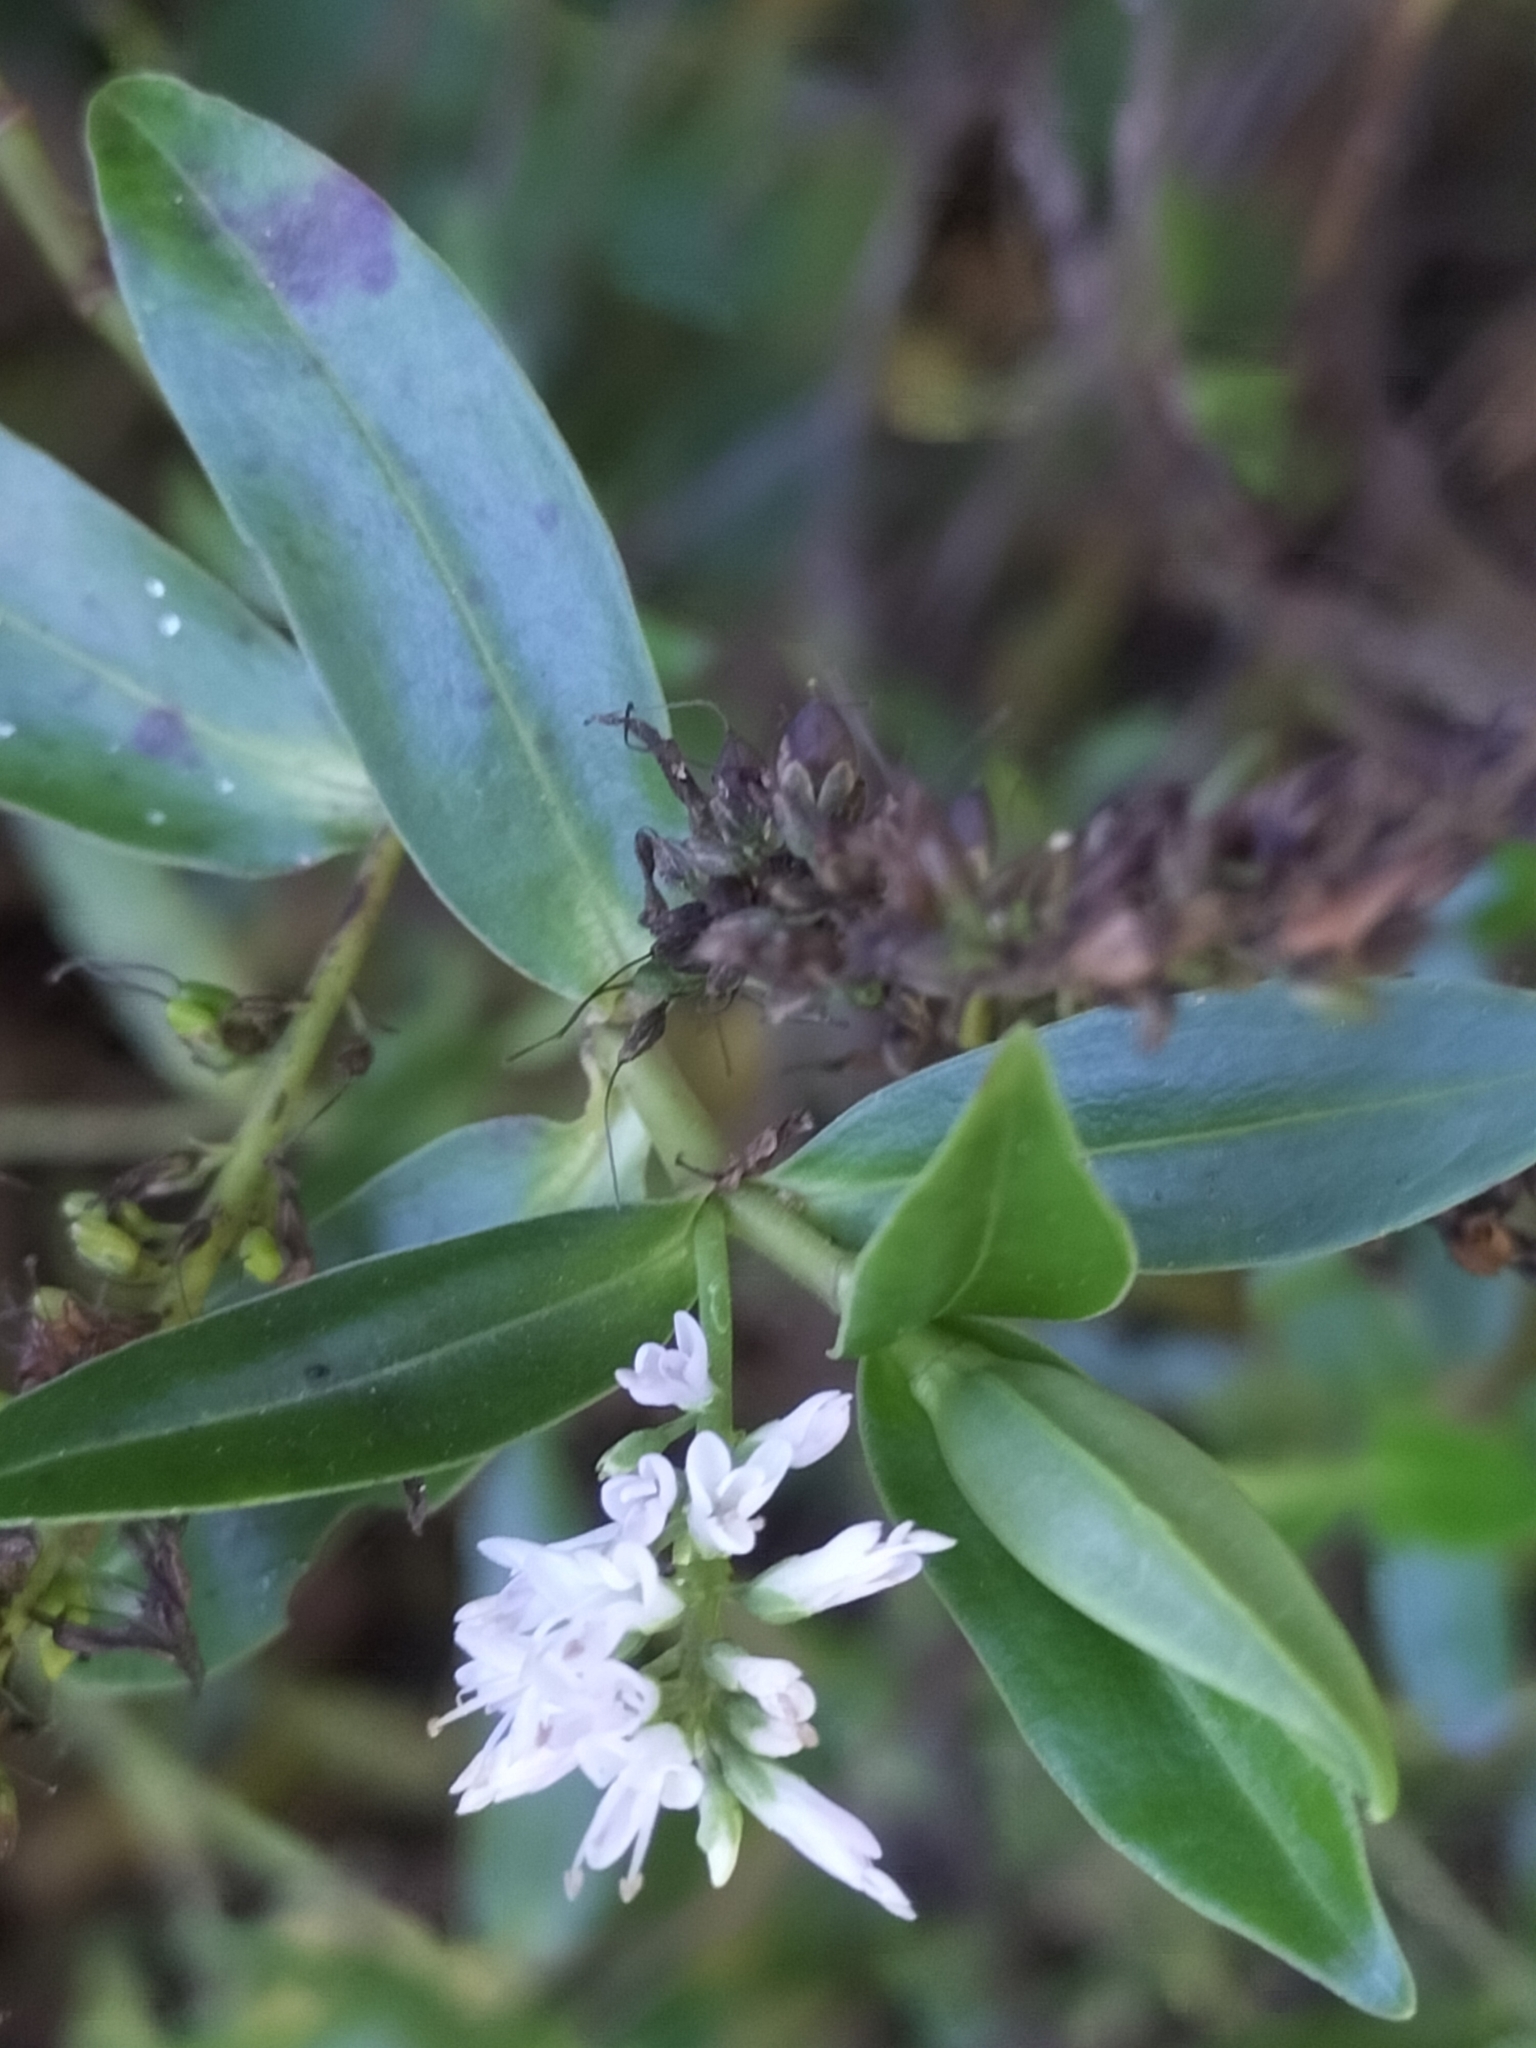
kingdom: Plantae
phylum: Tracheophyta
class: Magnoliopsida
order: Lamiales
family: Plantaginaceae
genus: Veronica
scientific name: Veronica stricta
